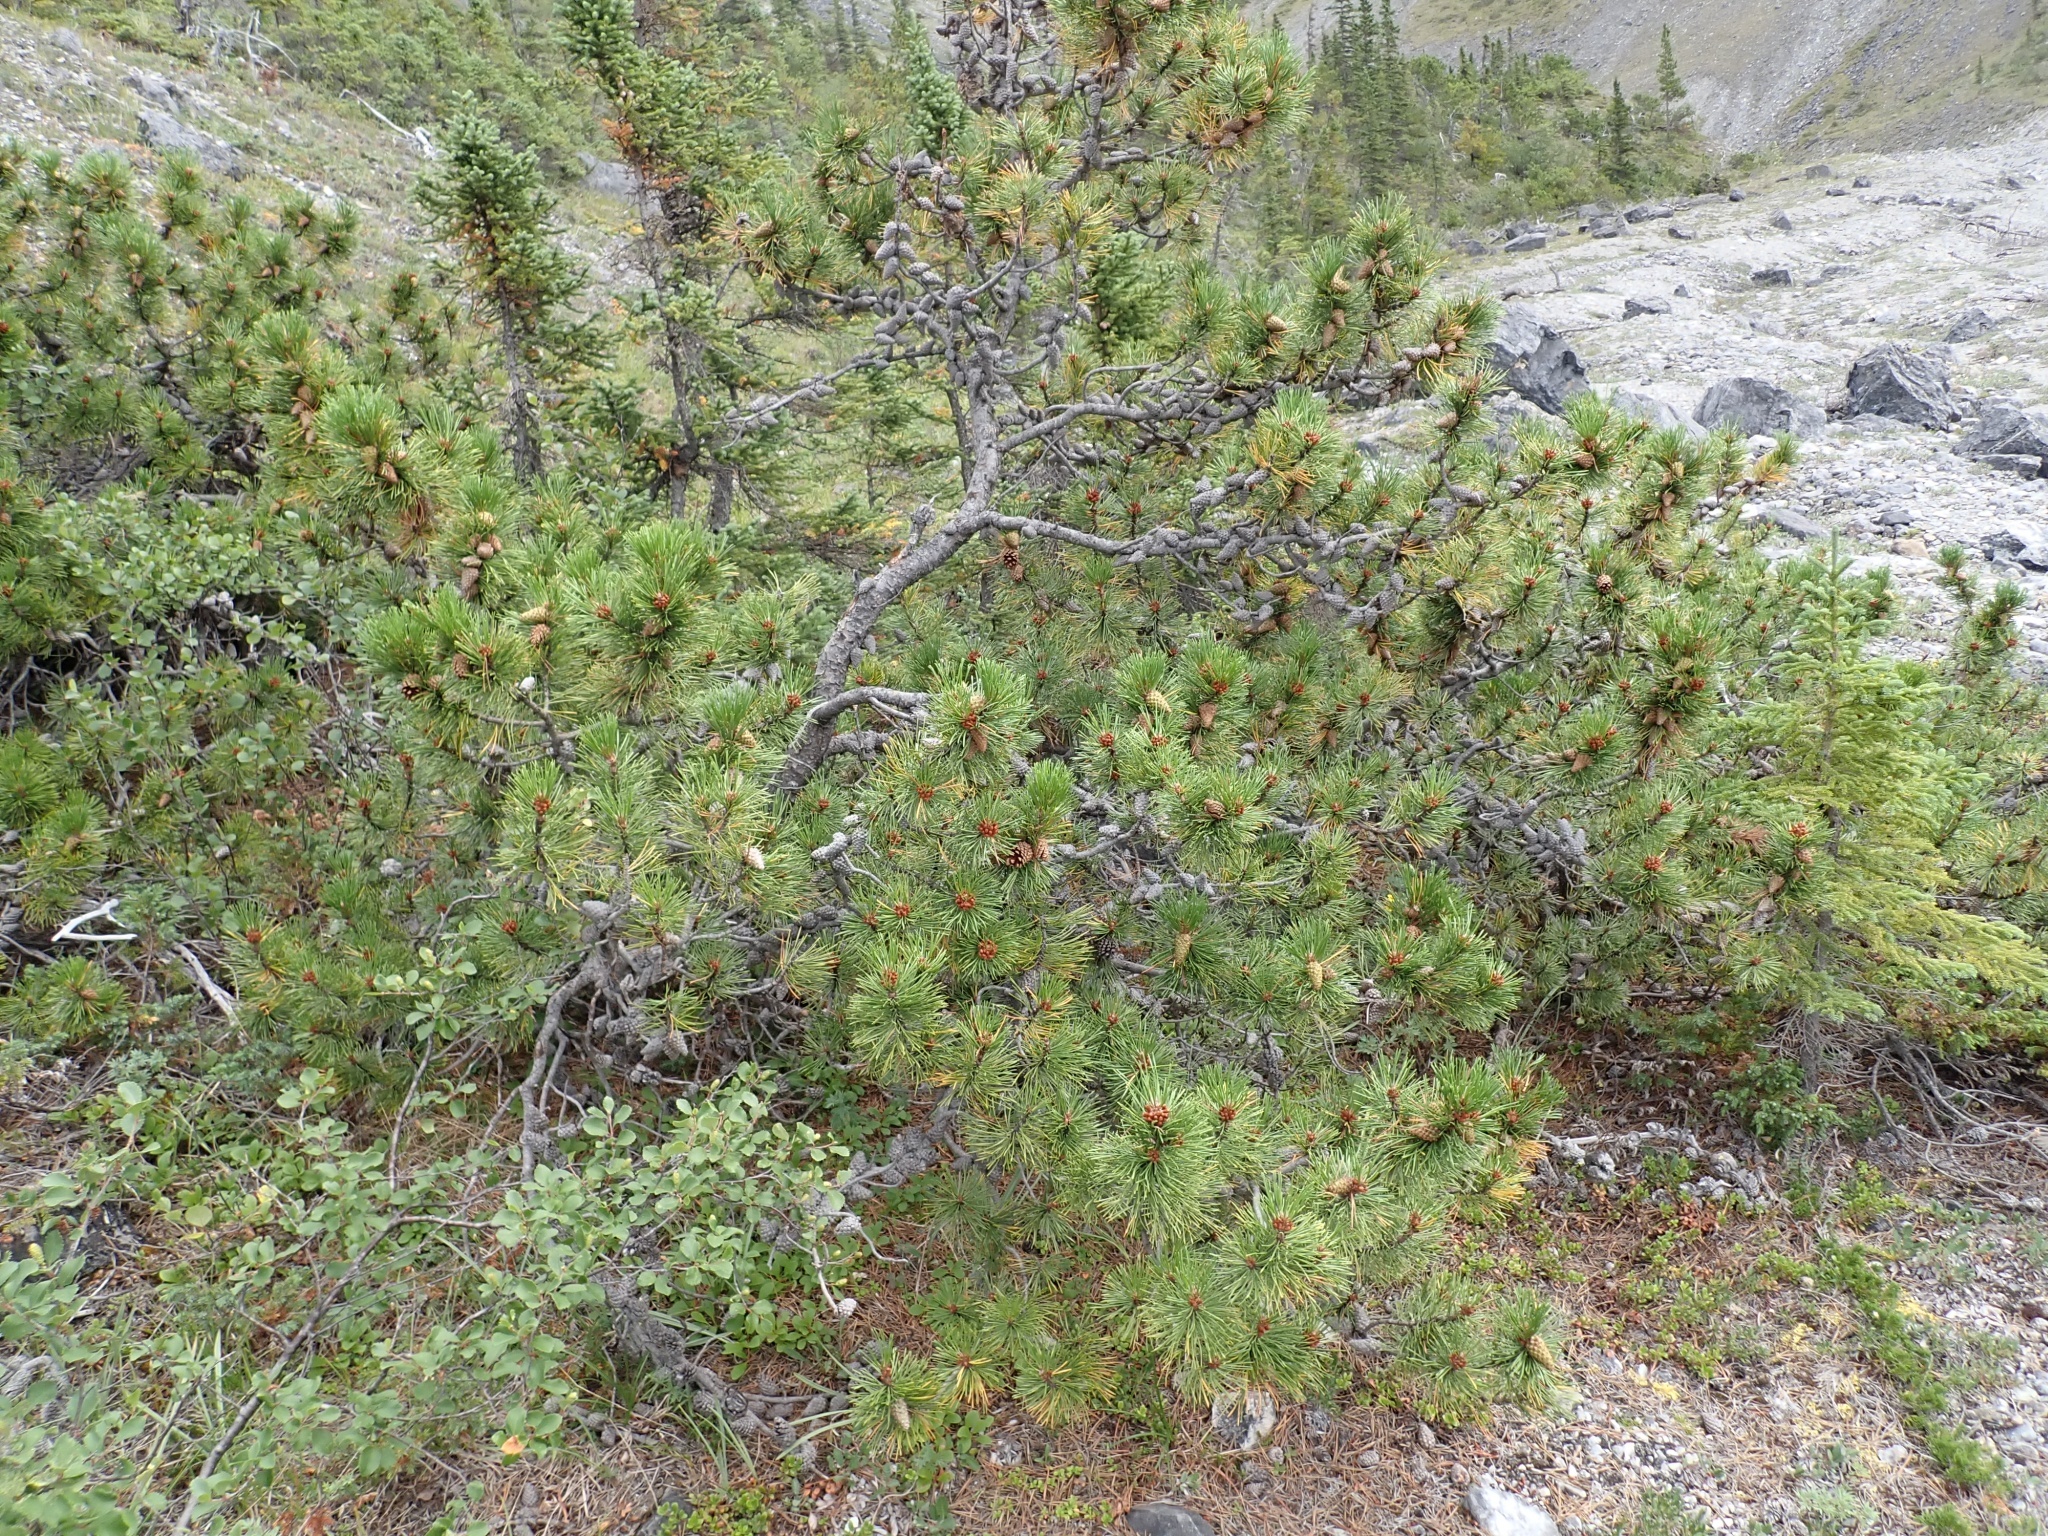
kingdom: Plantae
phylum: Tracheophyta
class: Pinopsida
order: Pinales
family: Pinaceae
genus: Pinus
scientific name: Pinus contorta
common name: Lodgepole pine
